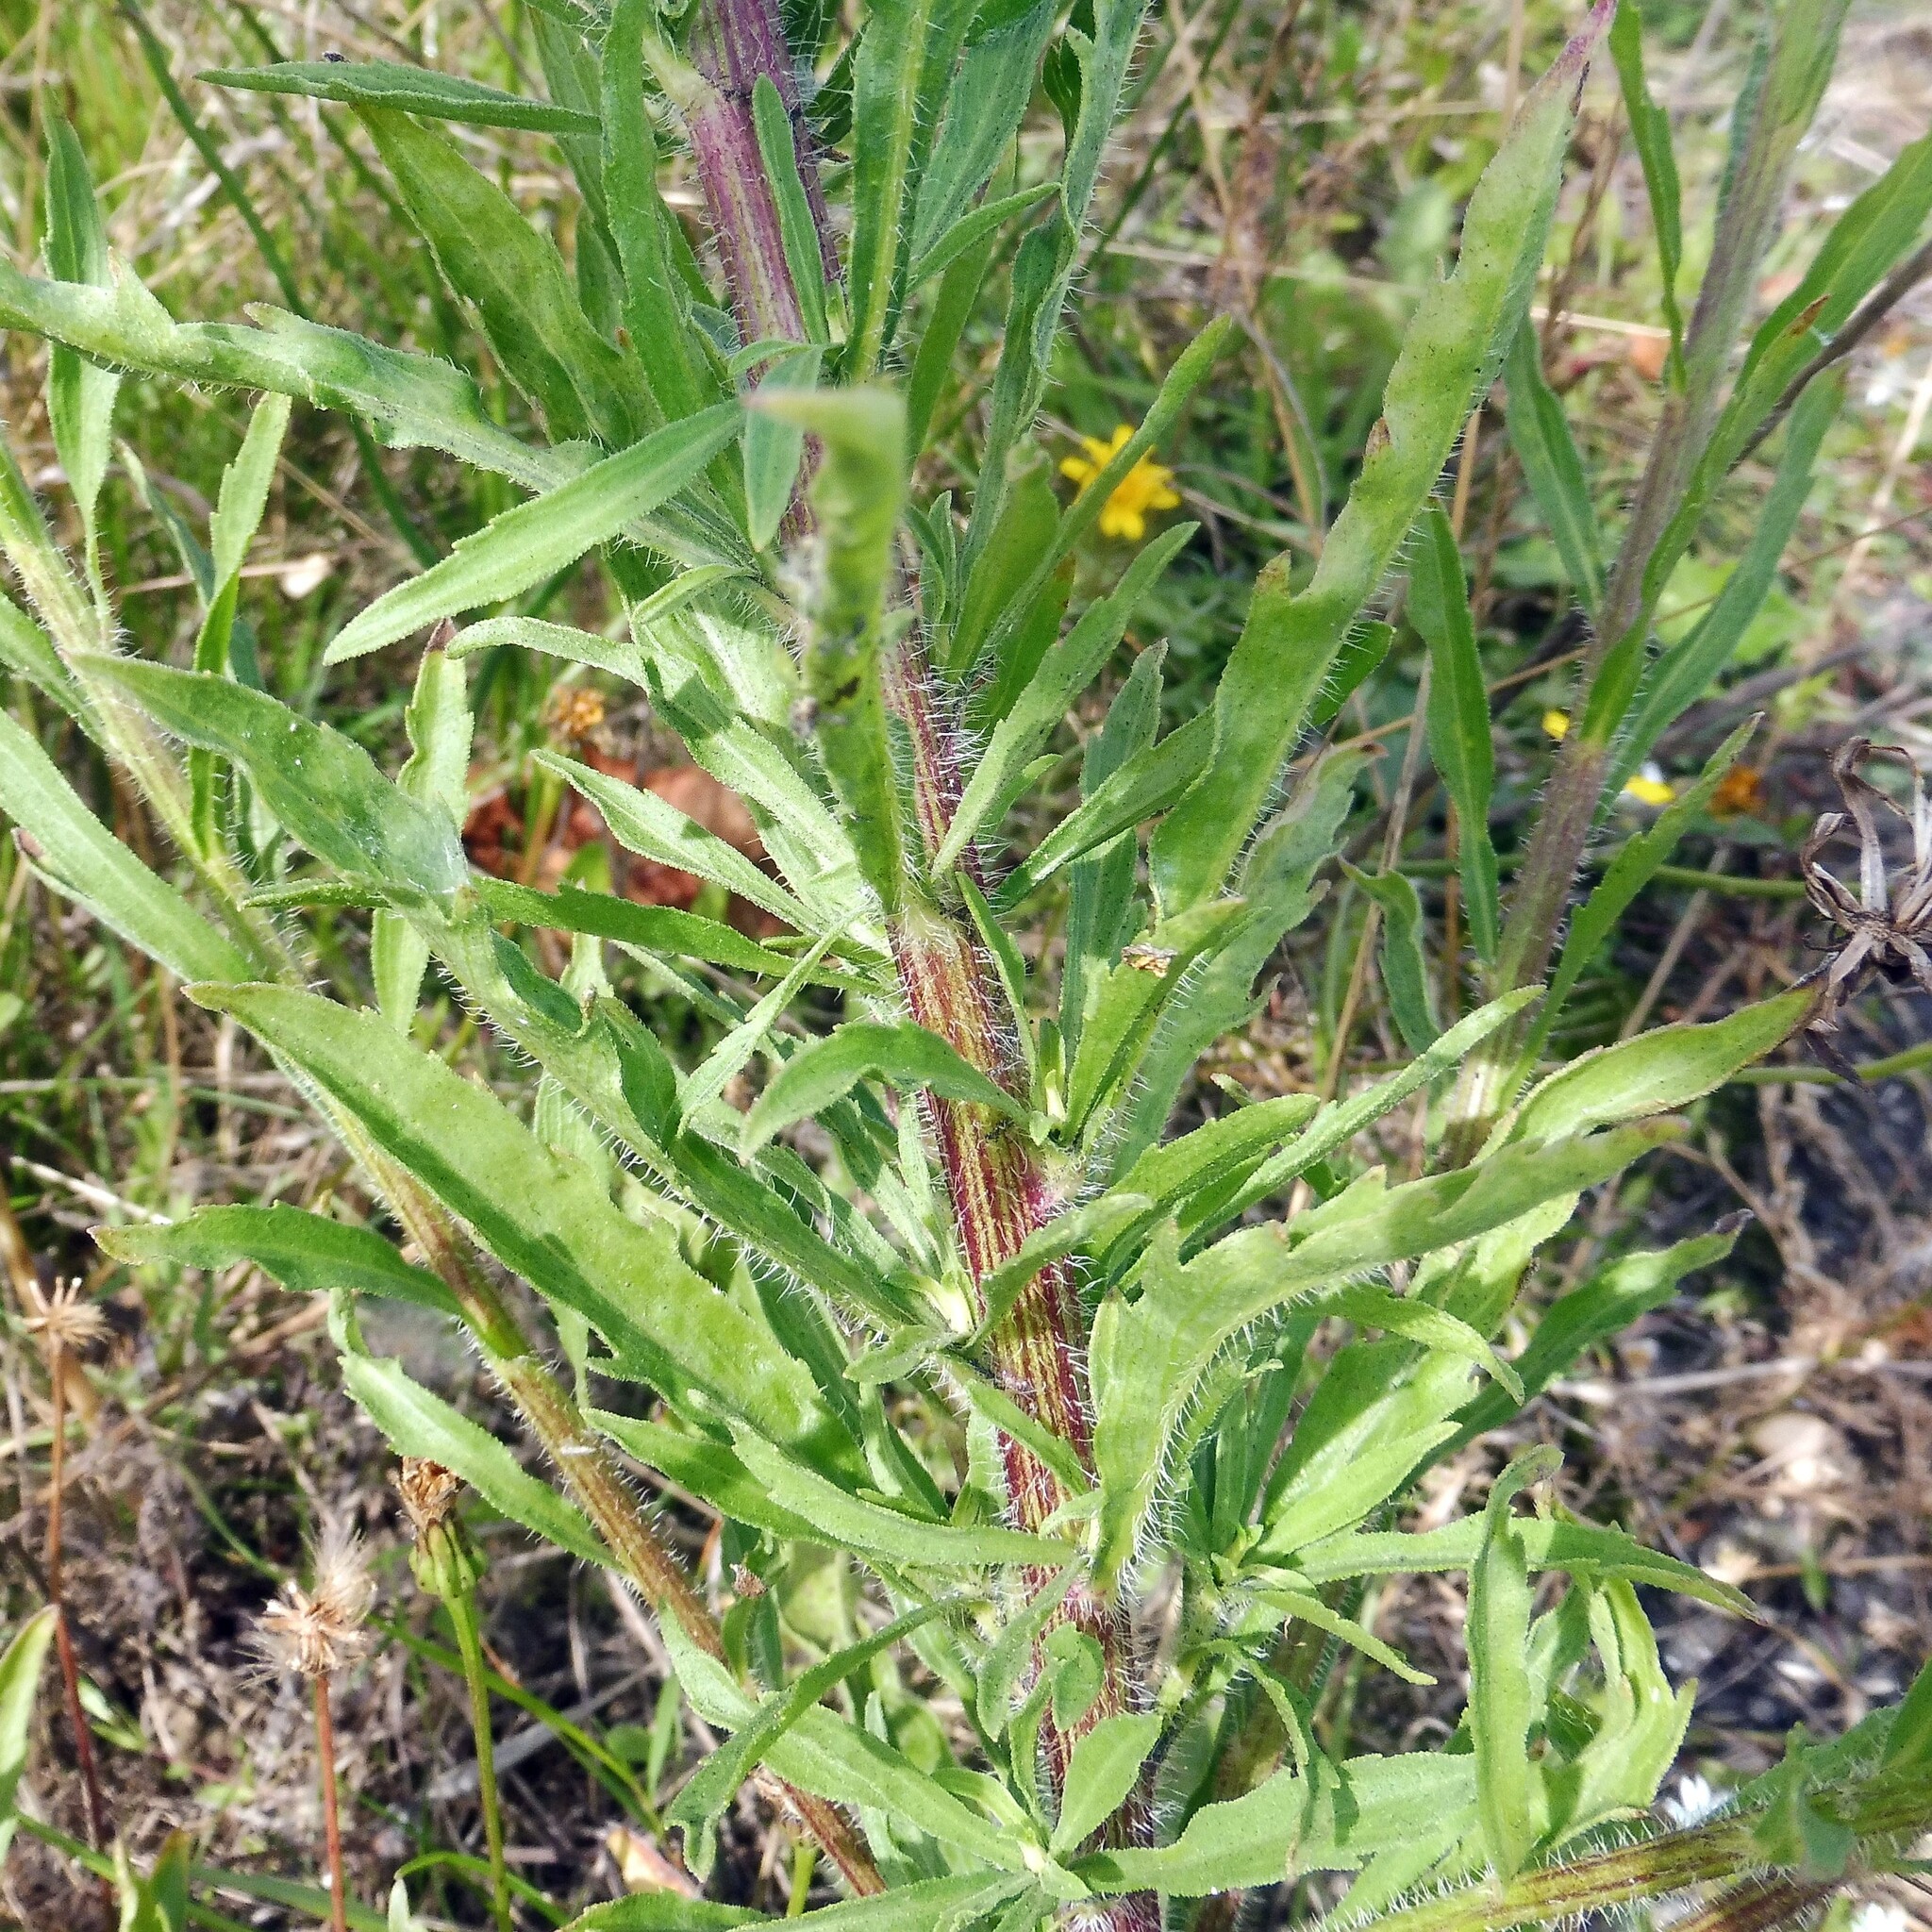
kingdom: Plantae
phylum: Tracheophyta
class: Magnoliopsida
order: Asterales
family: Asteraceae
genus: Erigeron
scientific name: Erigeron floribundus
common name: Bilbao fleabane
